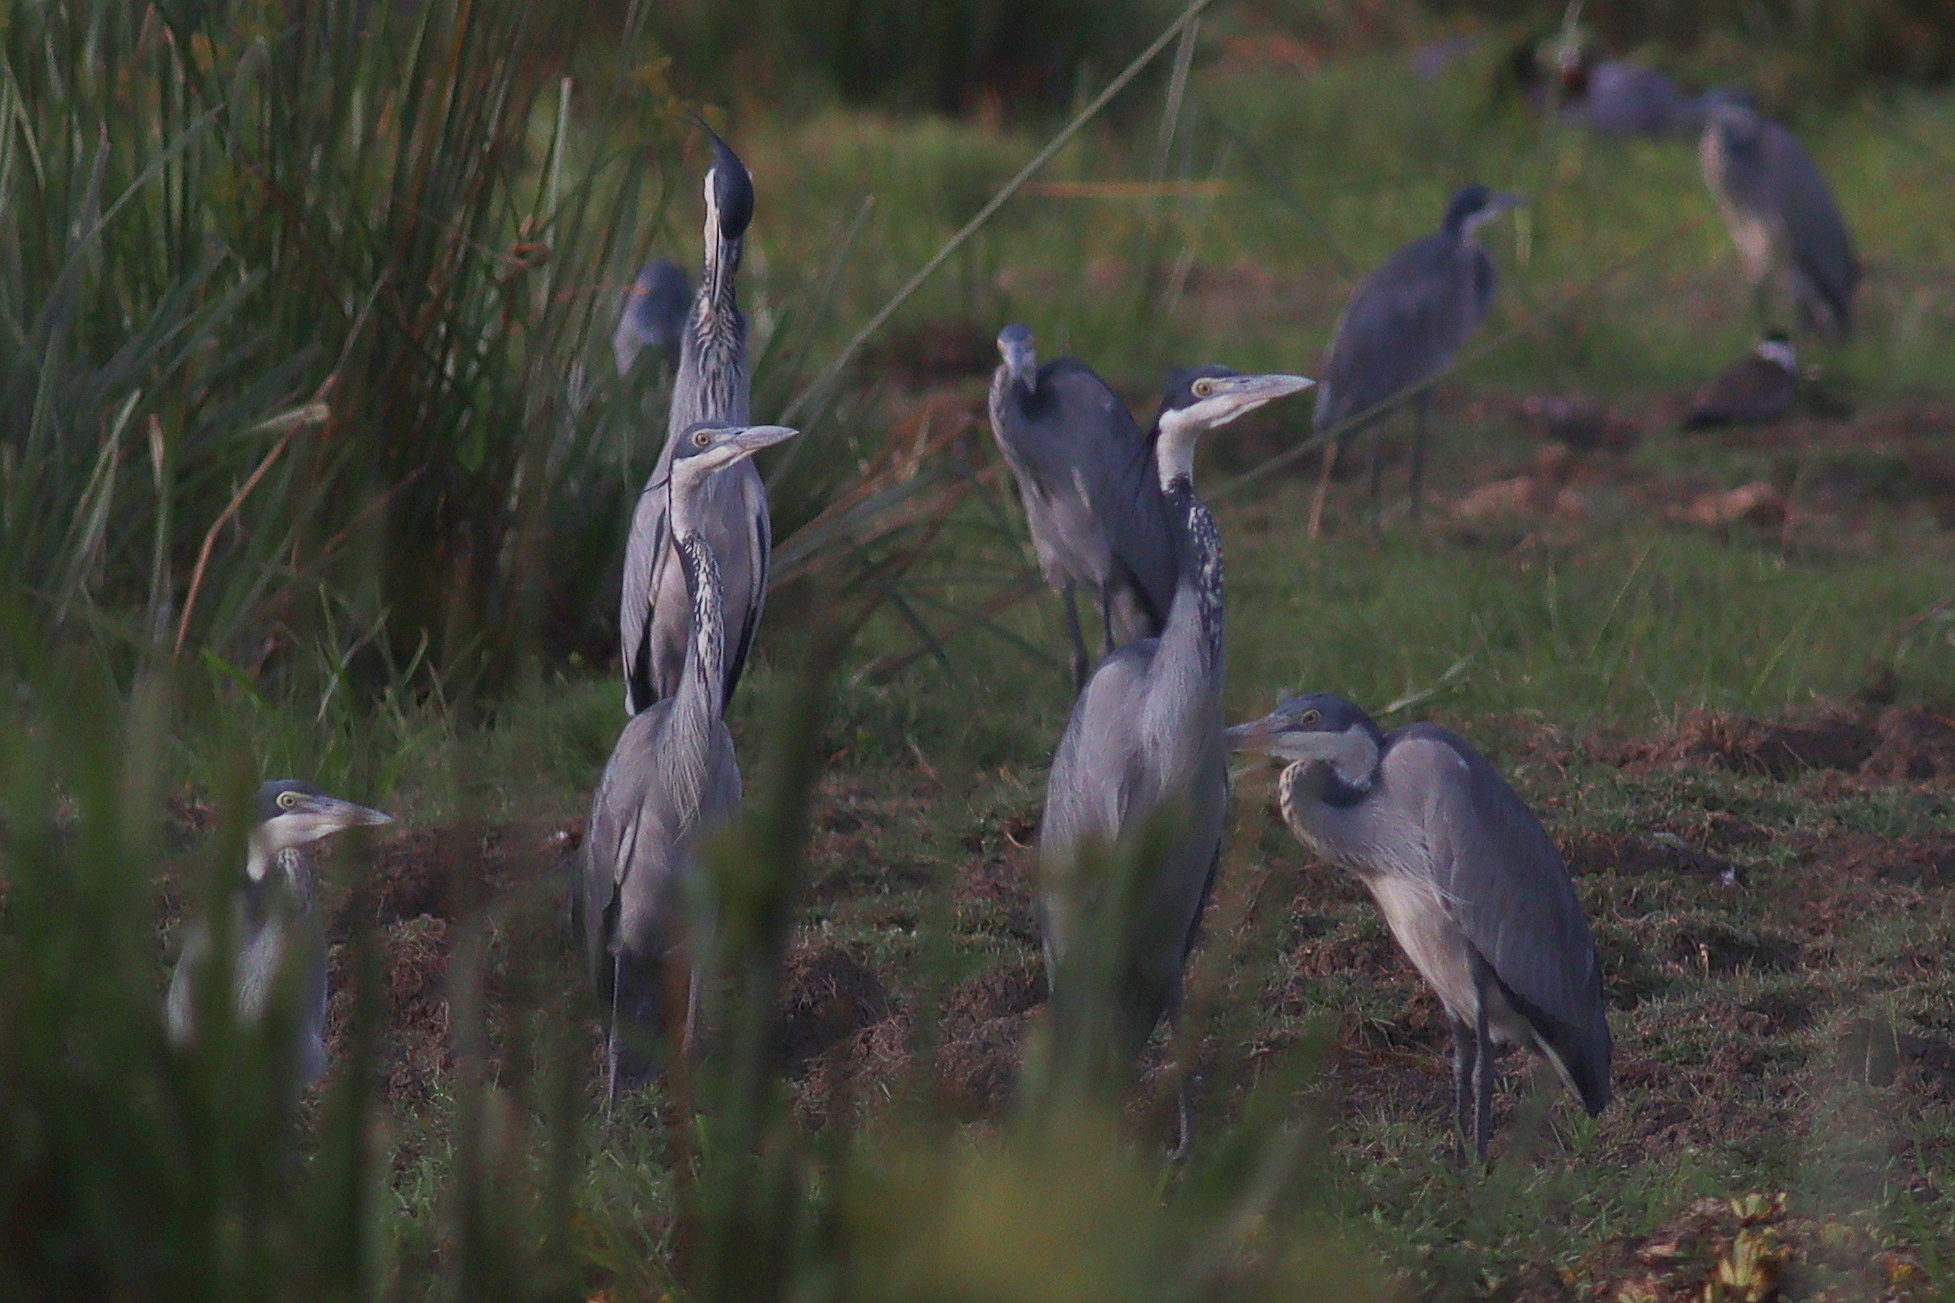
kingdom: Animalia
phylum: Chordata
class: Aves
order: Pelecaniformes
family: Ardeidae
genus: Ardea
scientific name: Ardea melanocephala
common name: Black-headed heron
